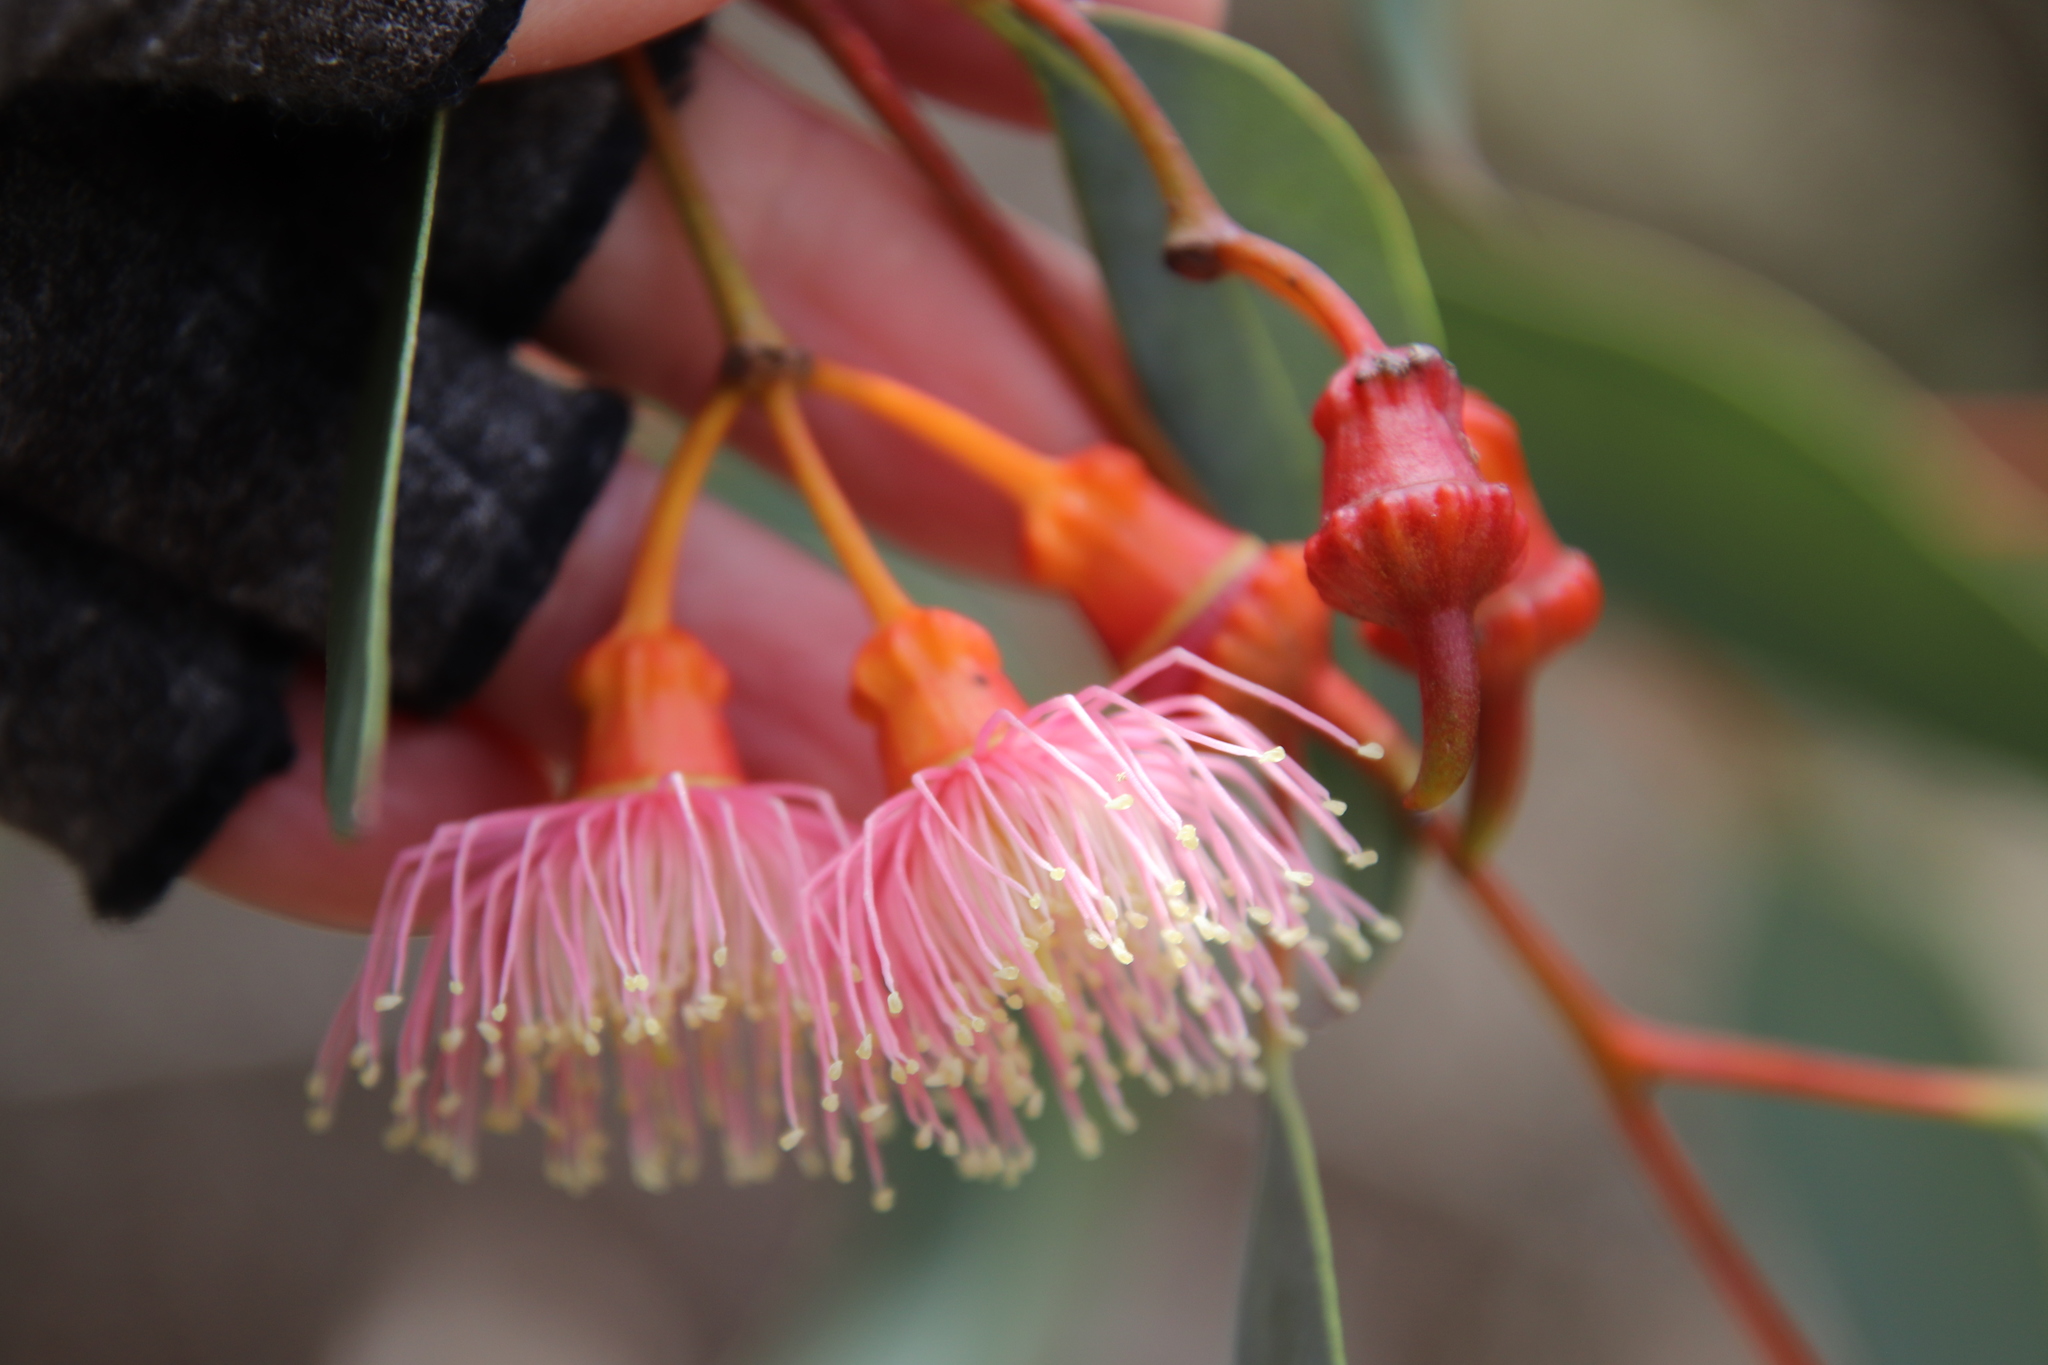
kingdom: Plantae
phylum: Tracheophyta
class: Magnoliopsida
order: Myrtales
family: Myrtaceae
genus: Eucalyptus
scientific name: Eucalyptus torquata
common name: Coral gum
